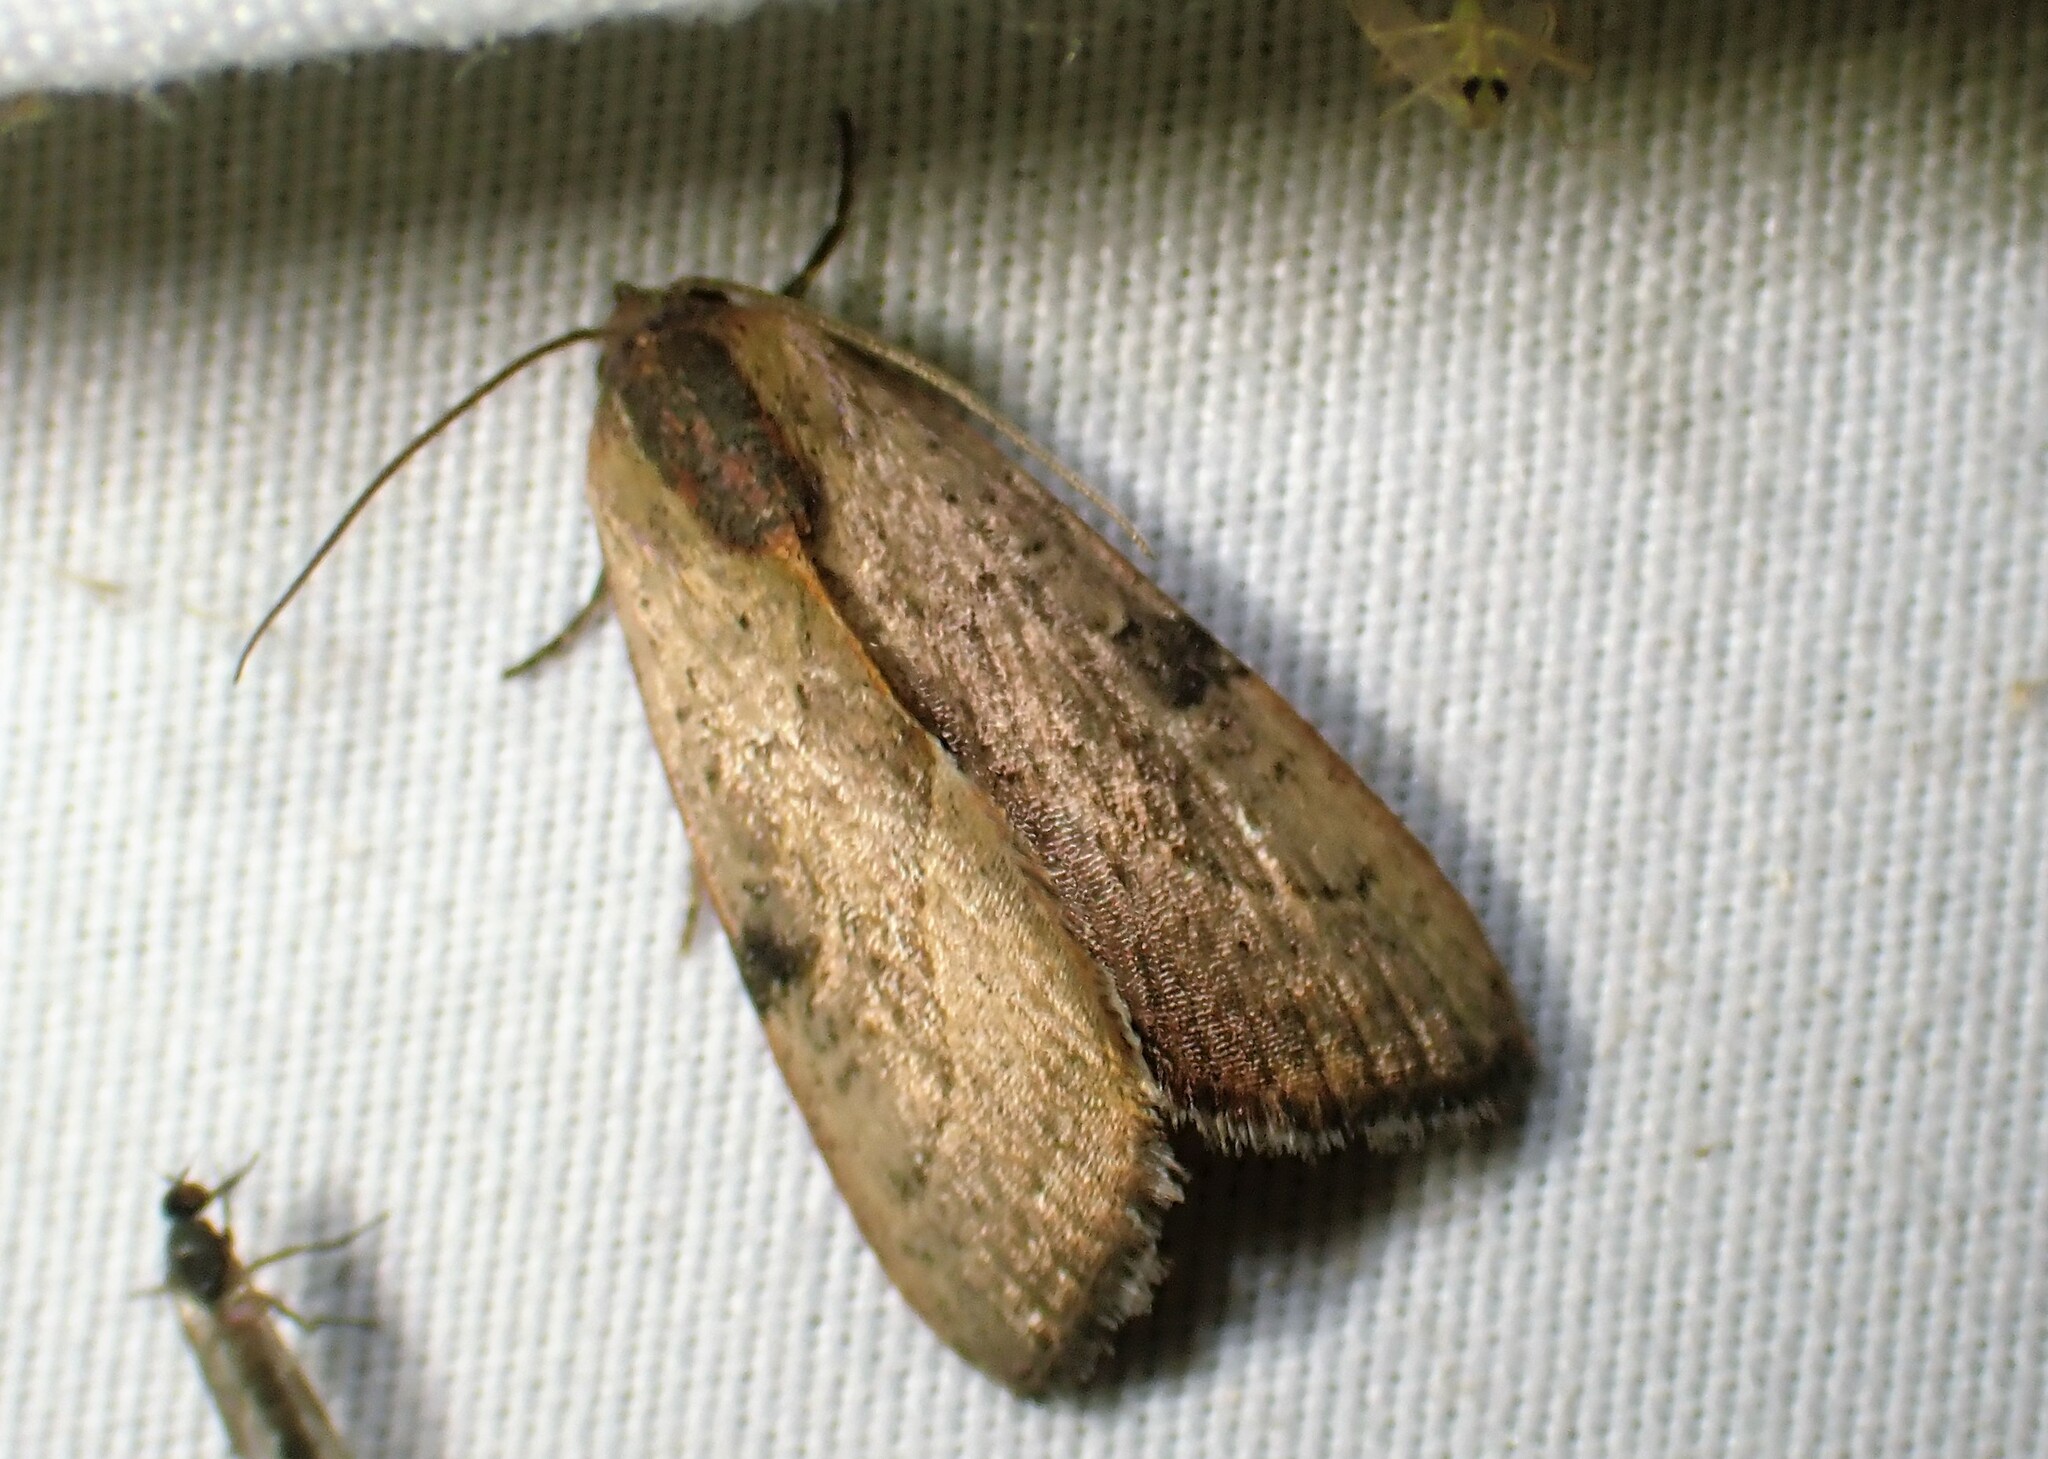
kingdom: Animalia
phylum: Arthropoda
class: Insecta
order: Lepidoptera
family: Noctuidae
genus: Galgula
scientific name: Galgula partita
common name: Wedgeling
